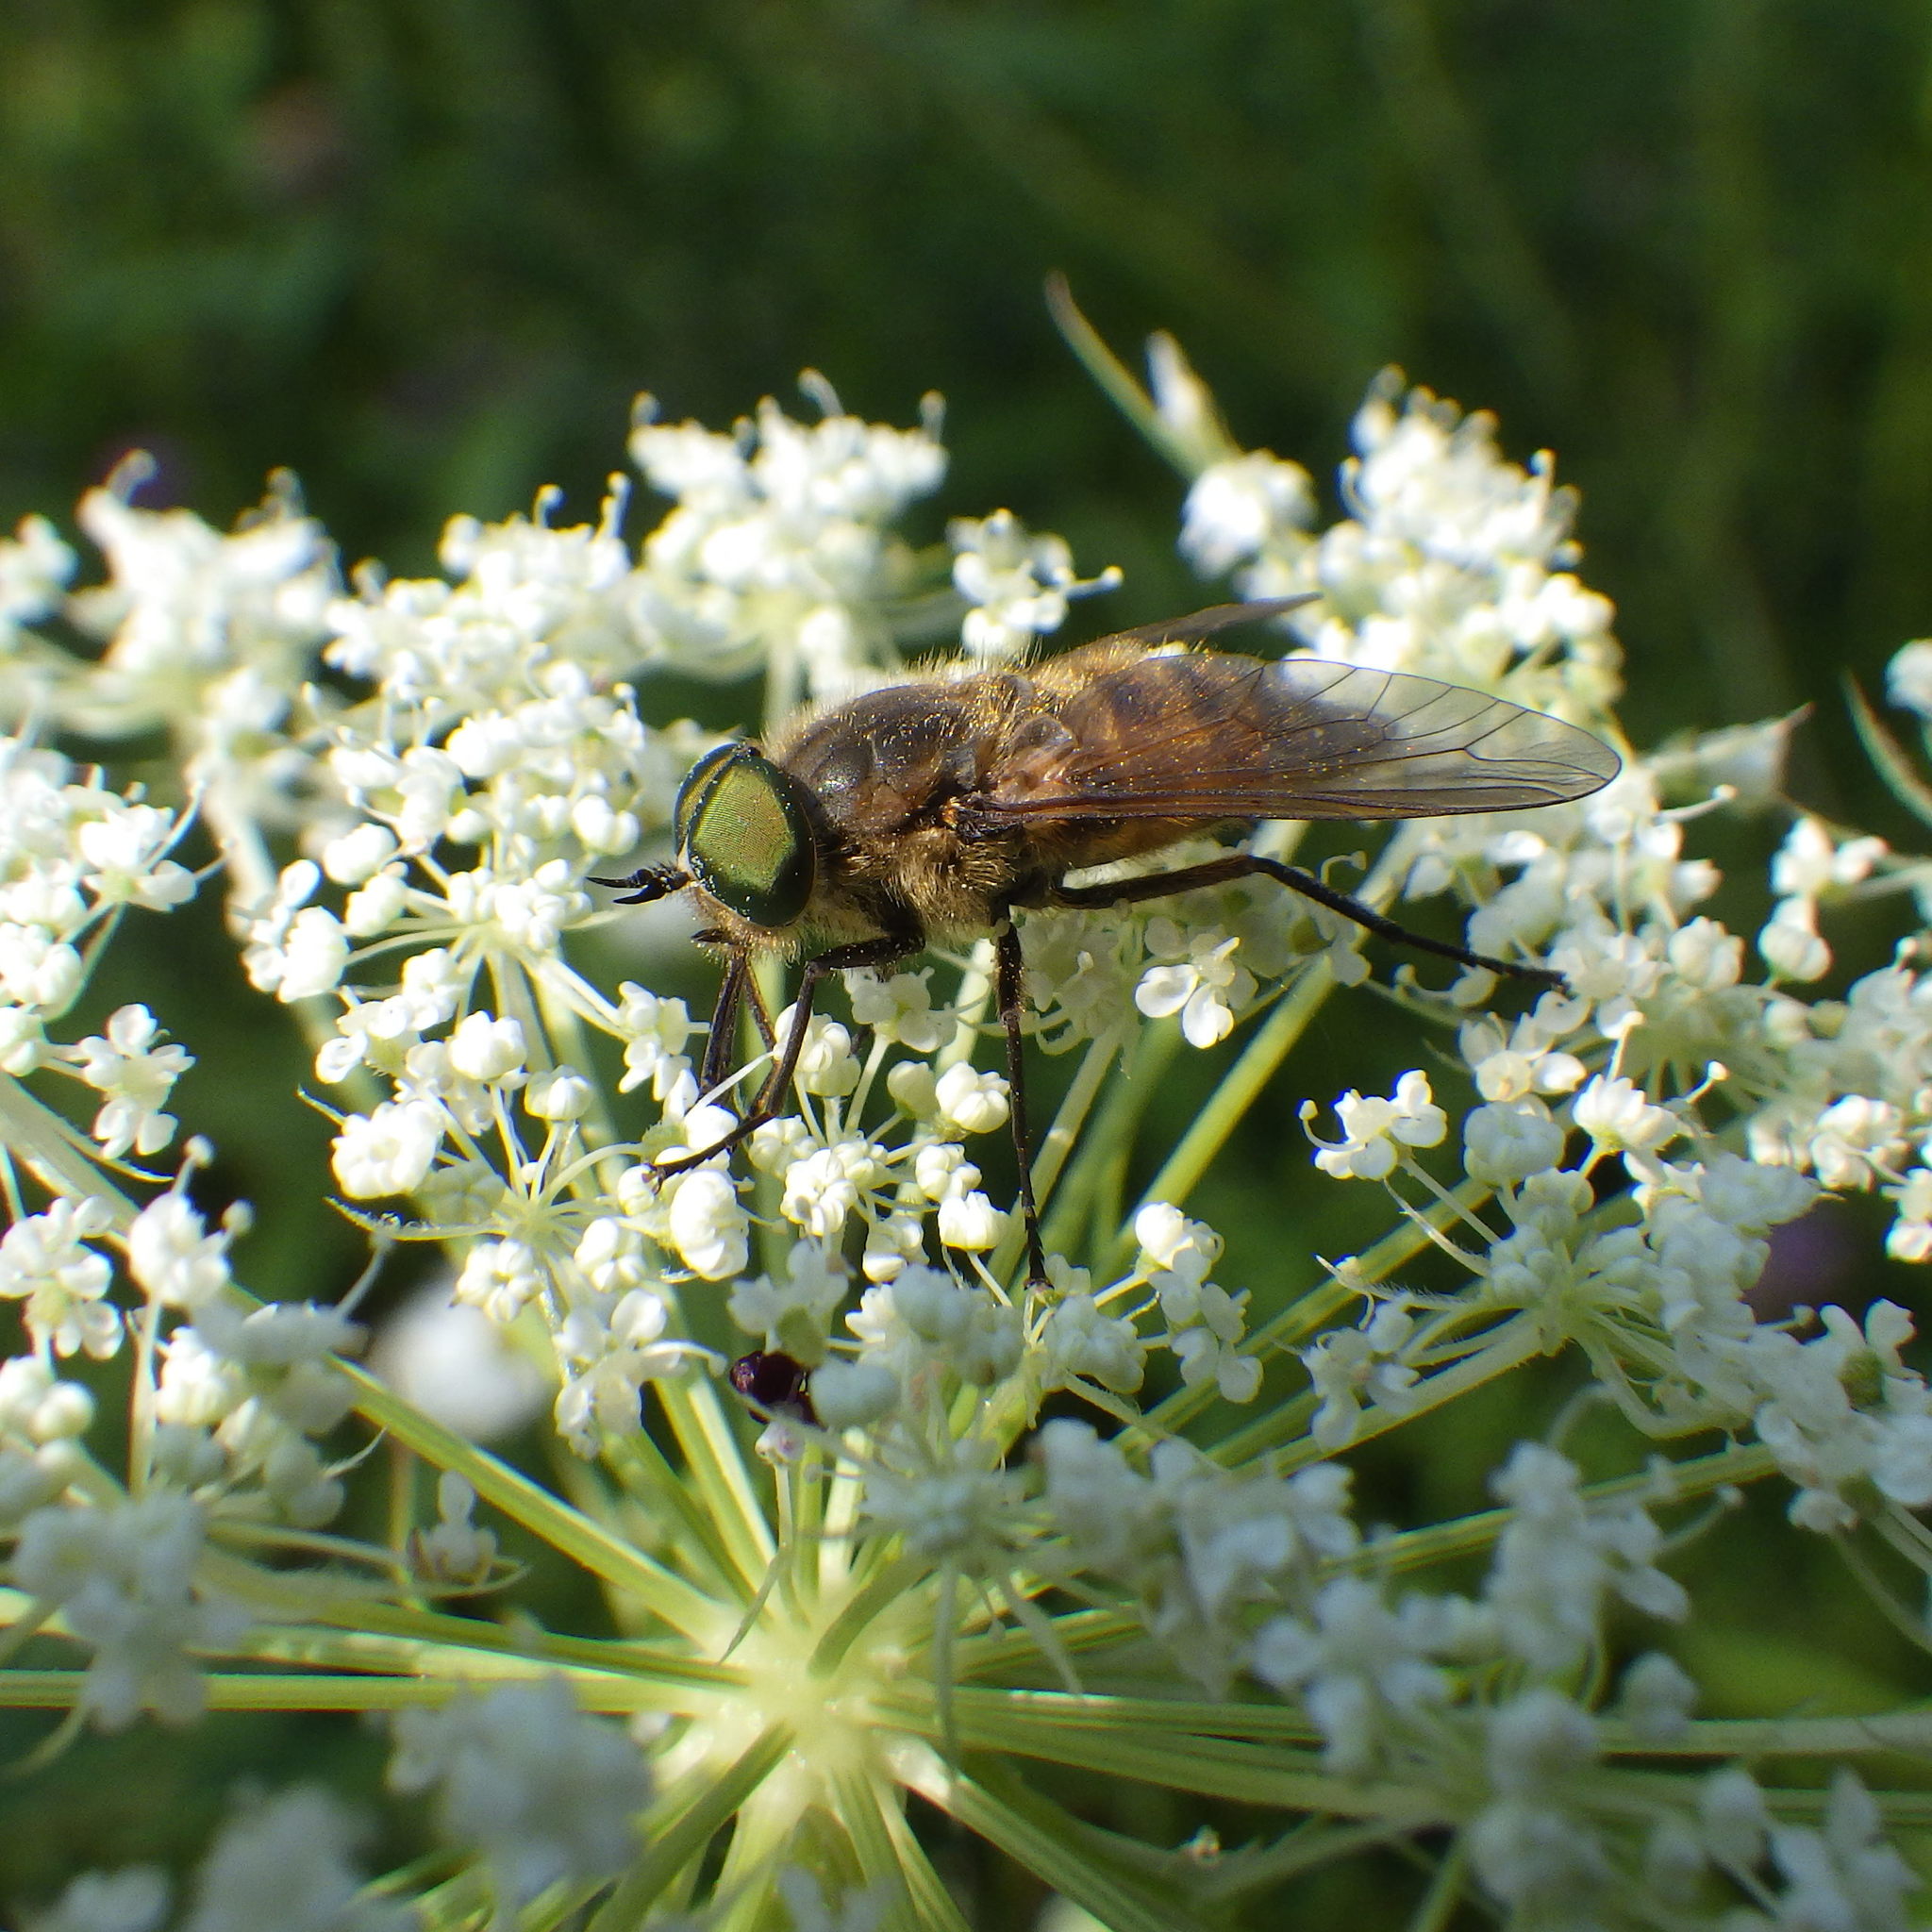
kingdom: Animalia
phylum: Arthropoda
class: Insecta
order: Diptera
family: Tabanidae
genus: Stonemyia
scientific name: Stonemyia tranquilla
